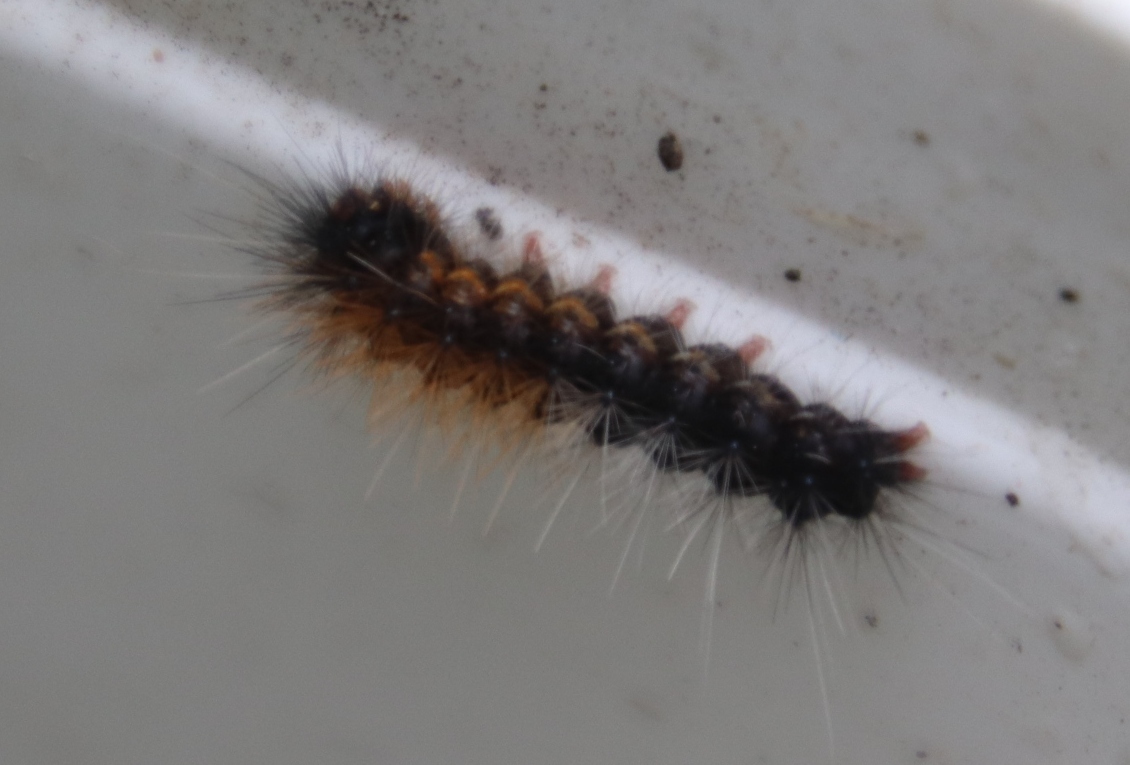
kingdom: Animalia
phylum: Arthropoda
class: Insecta
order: Lepidoptera
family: Erebidae
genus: Rhodogastria
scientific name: Rhodogastria amasis
